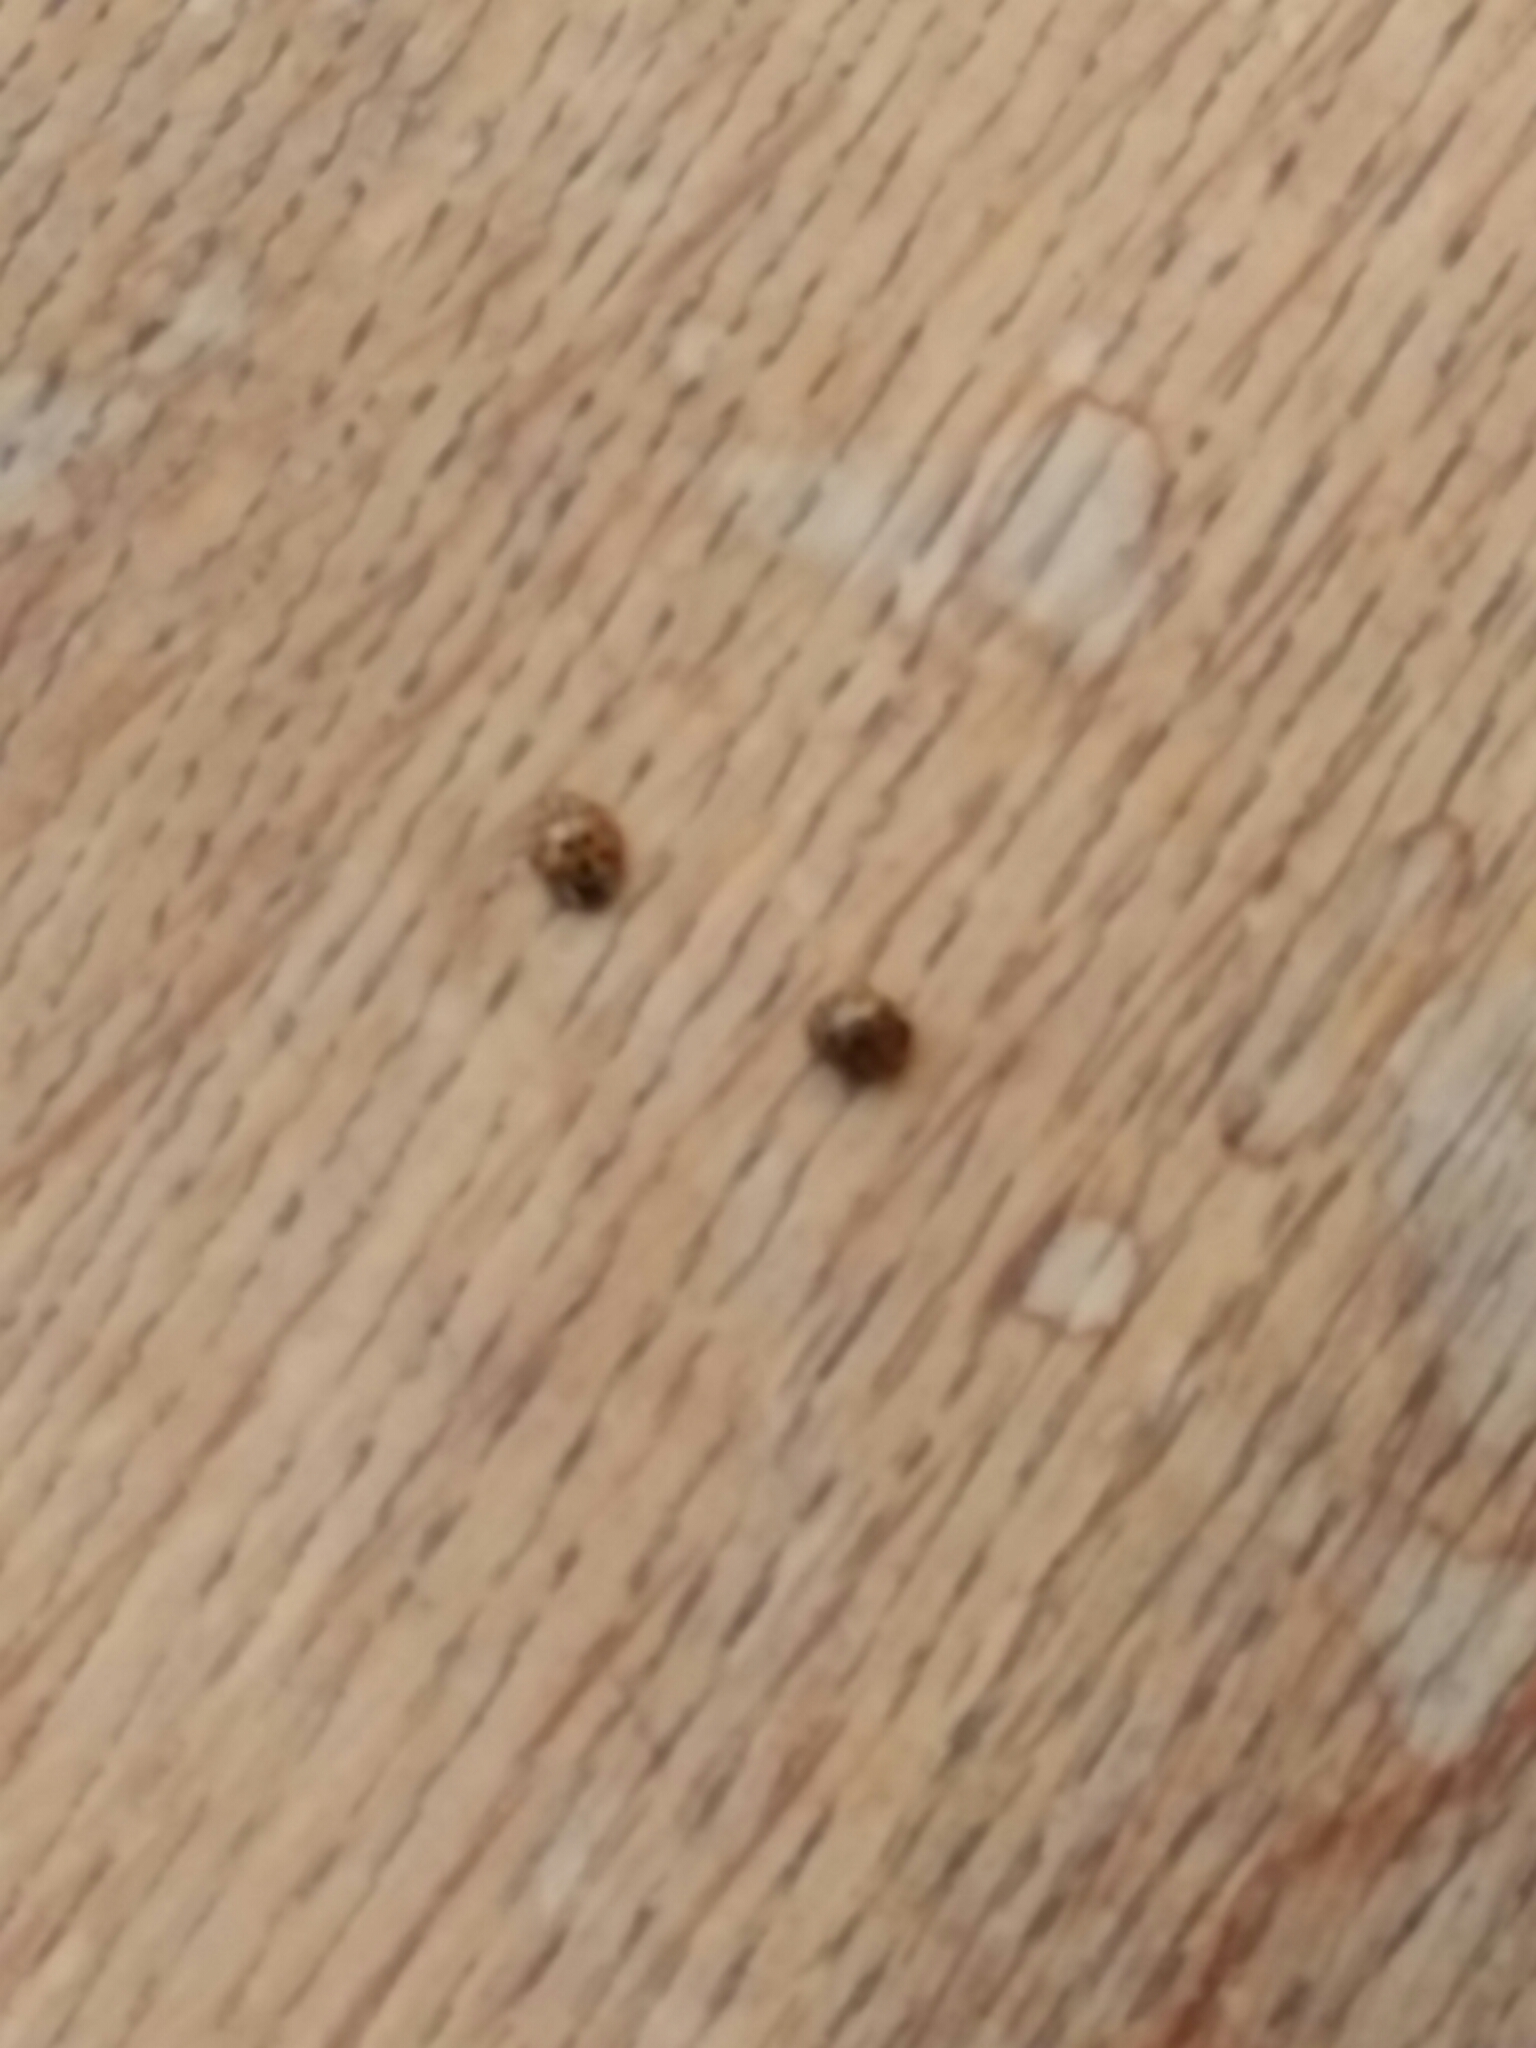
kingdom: Animalia
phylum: Arthropoda
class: Insecta
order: Coleoptera
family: Coccinellidae
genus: Harmonia
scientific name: Harmonia axyridis
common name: Harlequin ladybird
